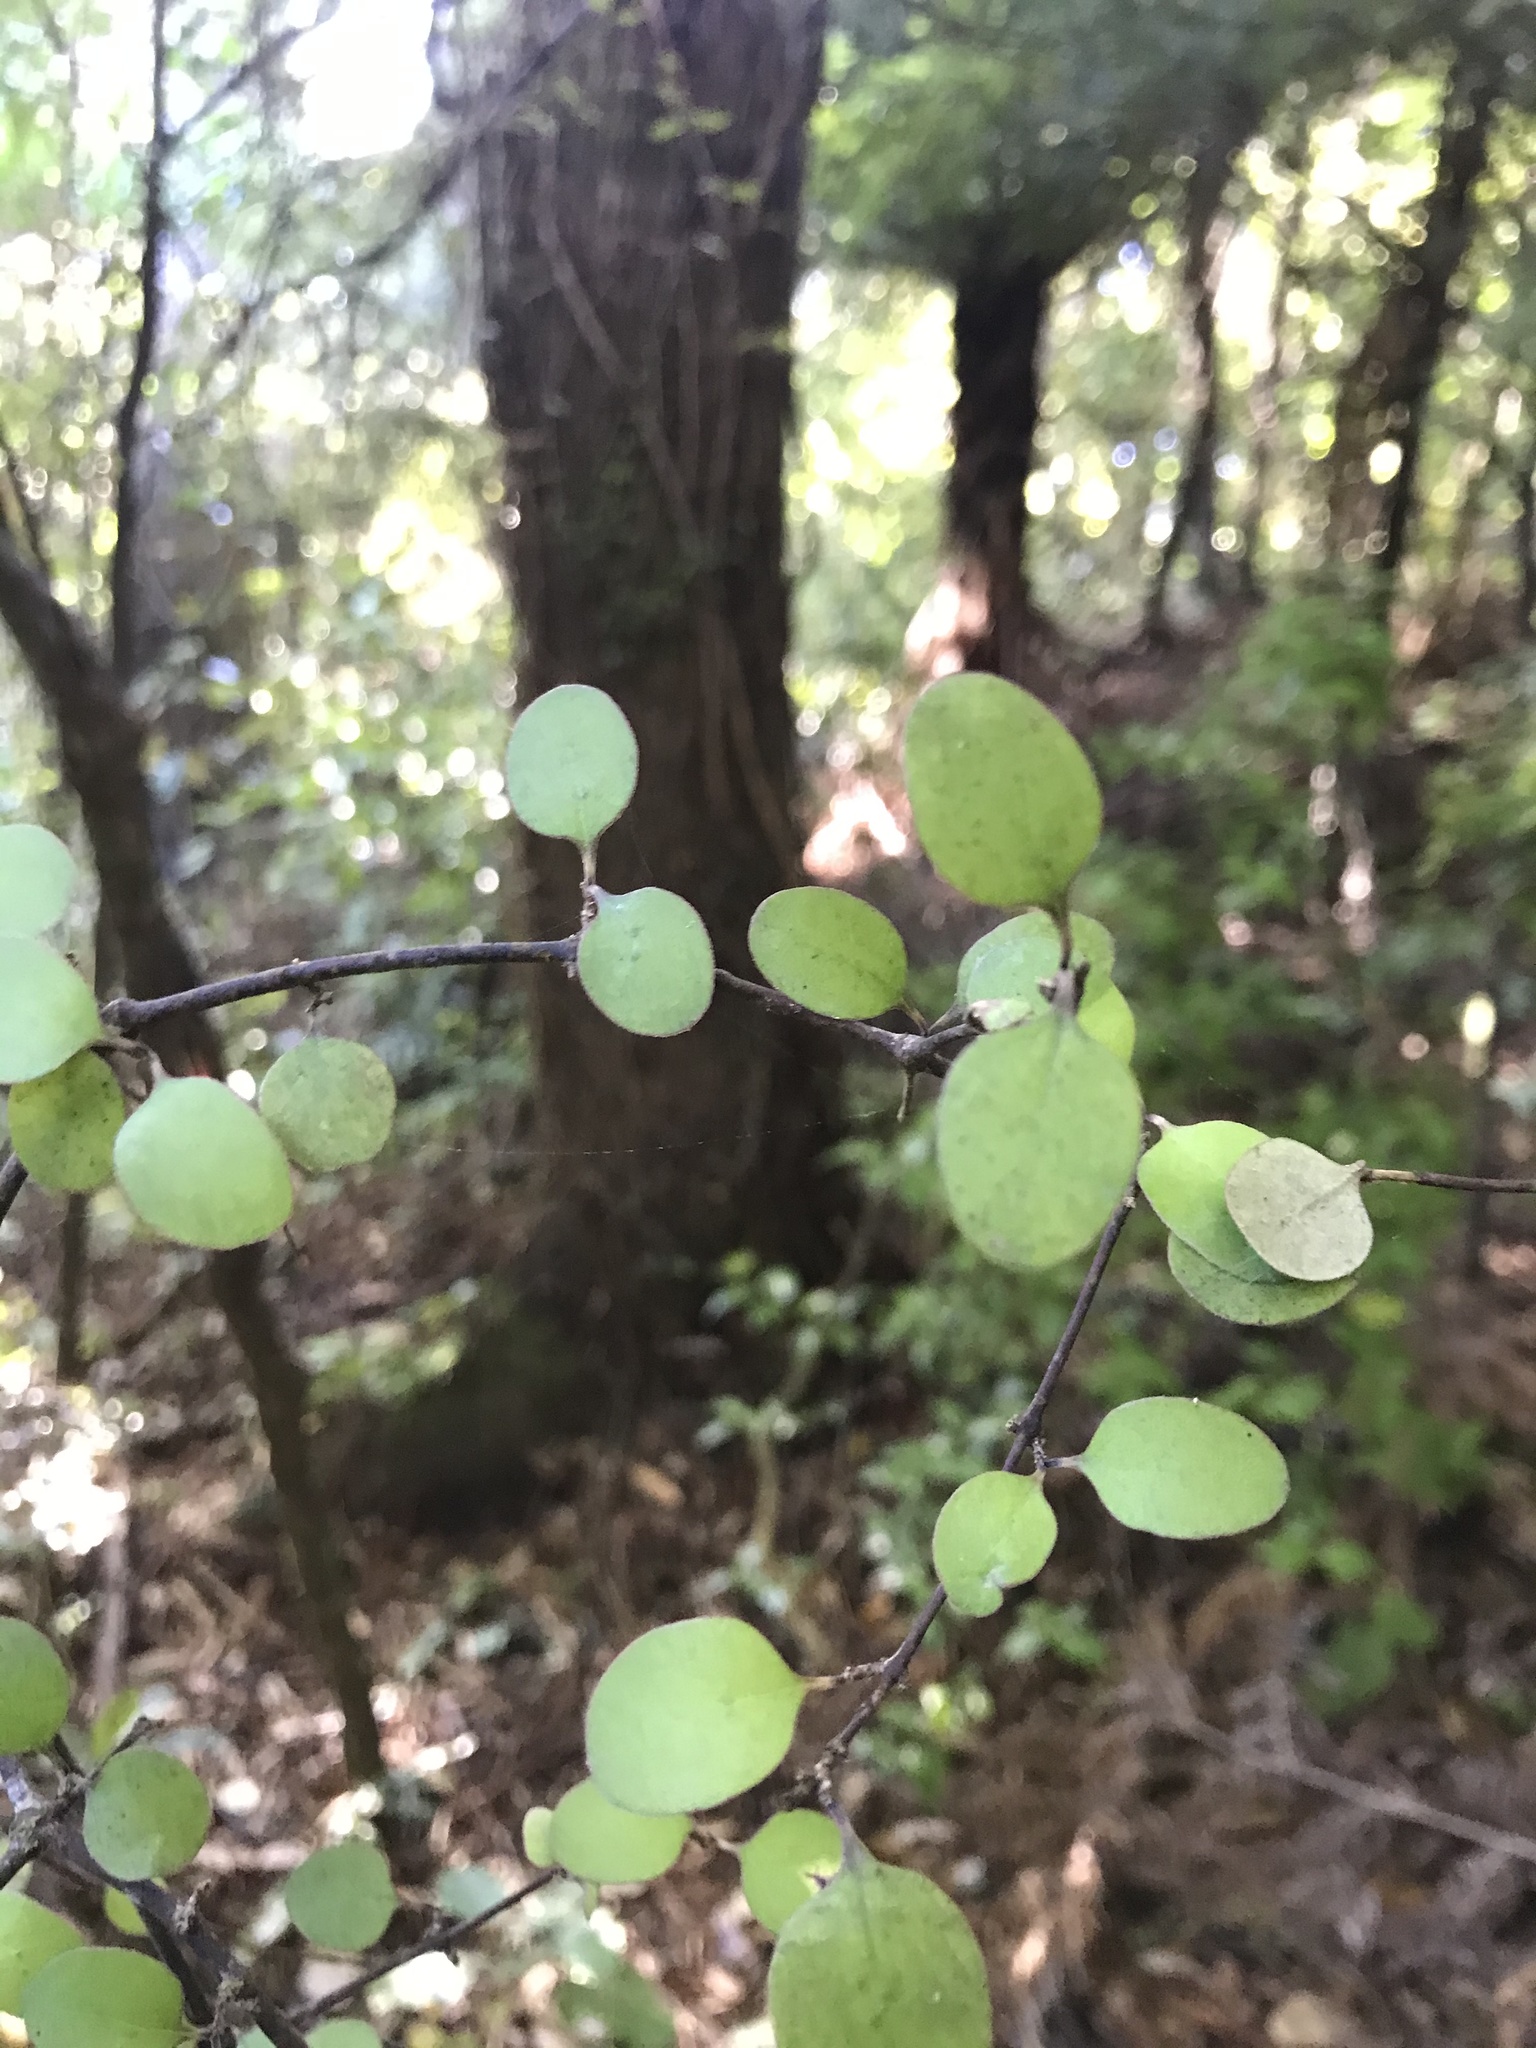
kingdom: Plantae
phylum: Tracheophyta
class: Magnoliopsida
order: Gentianales
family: Rubiaceae
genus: Coprosma
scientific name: Coprosma crassifolia
